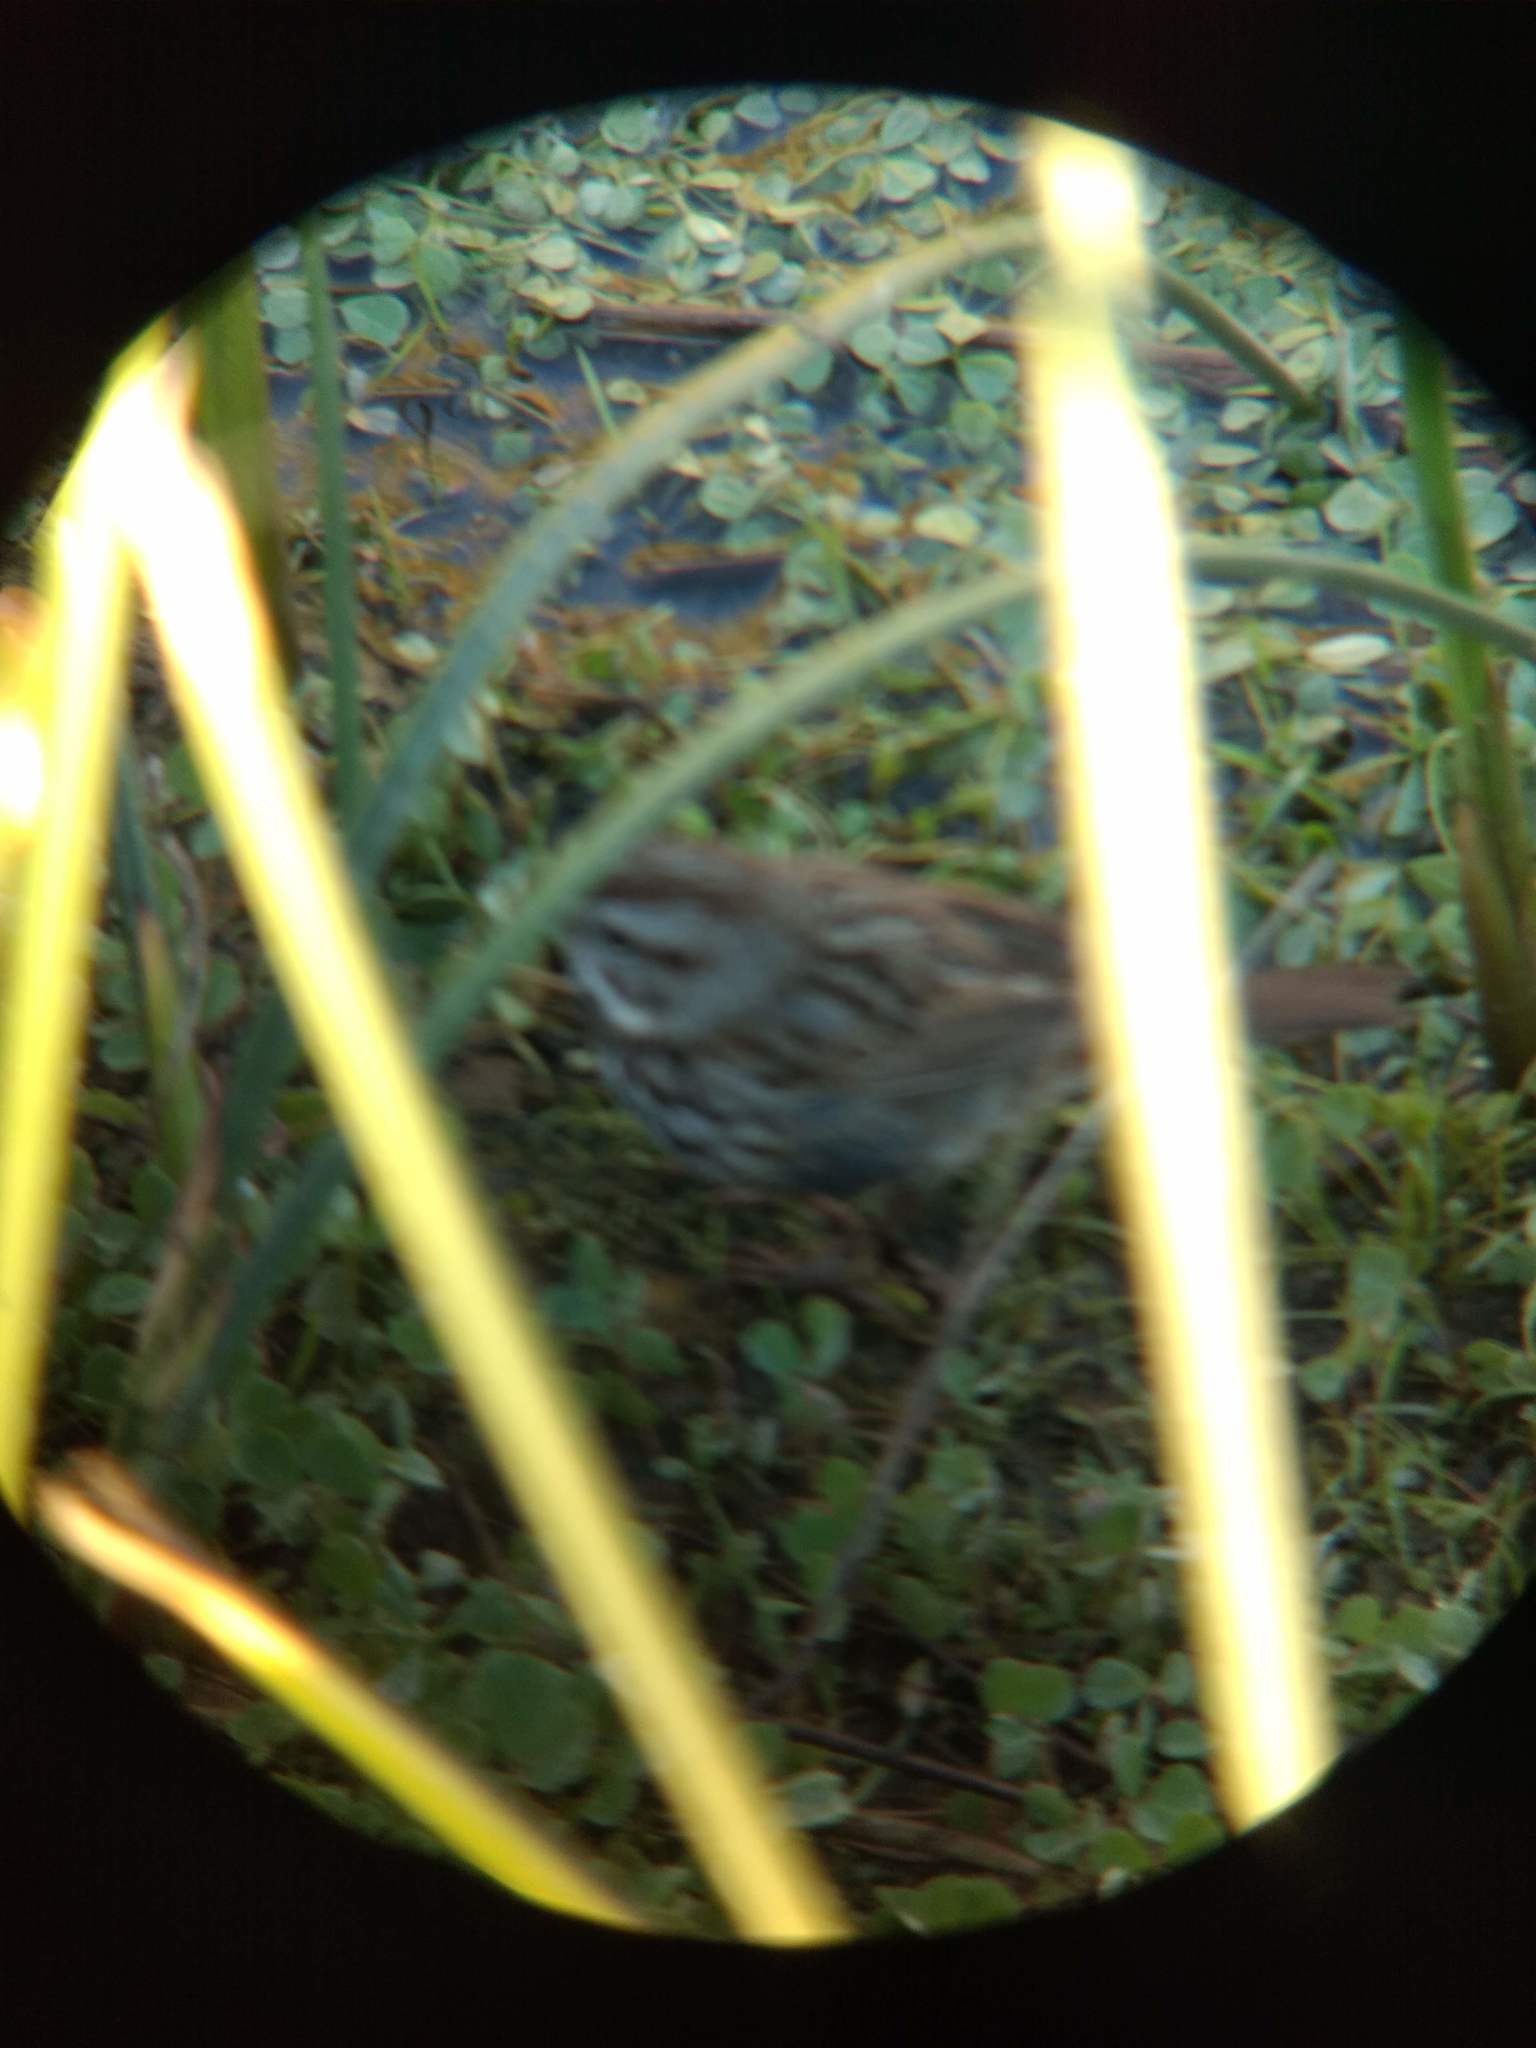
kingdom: Animalia
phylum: Chordata
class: Aves
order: Passeriformes
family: Passerellidae
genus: Melospiza
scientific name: Melospiza melodia
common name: Song sparrow
